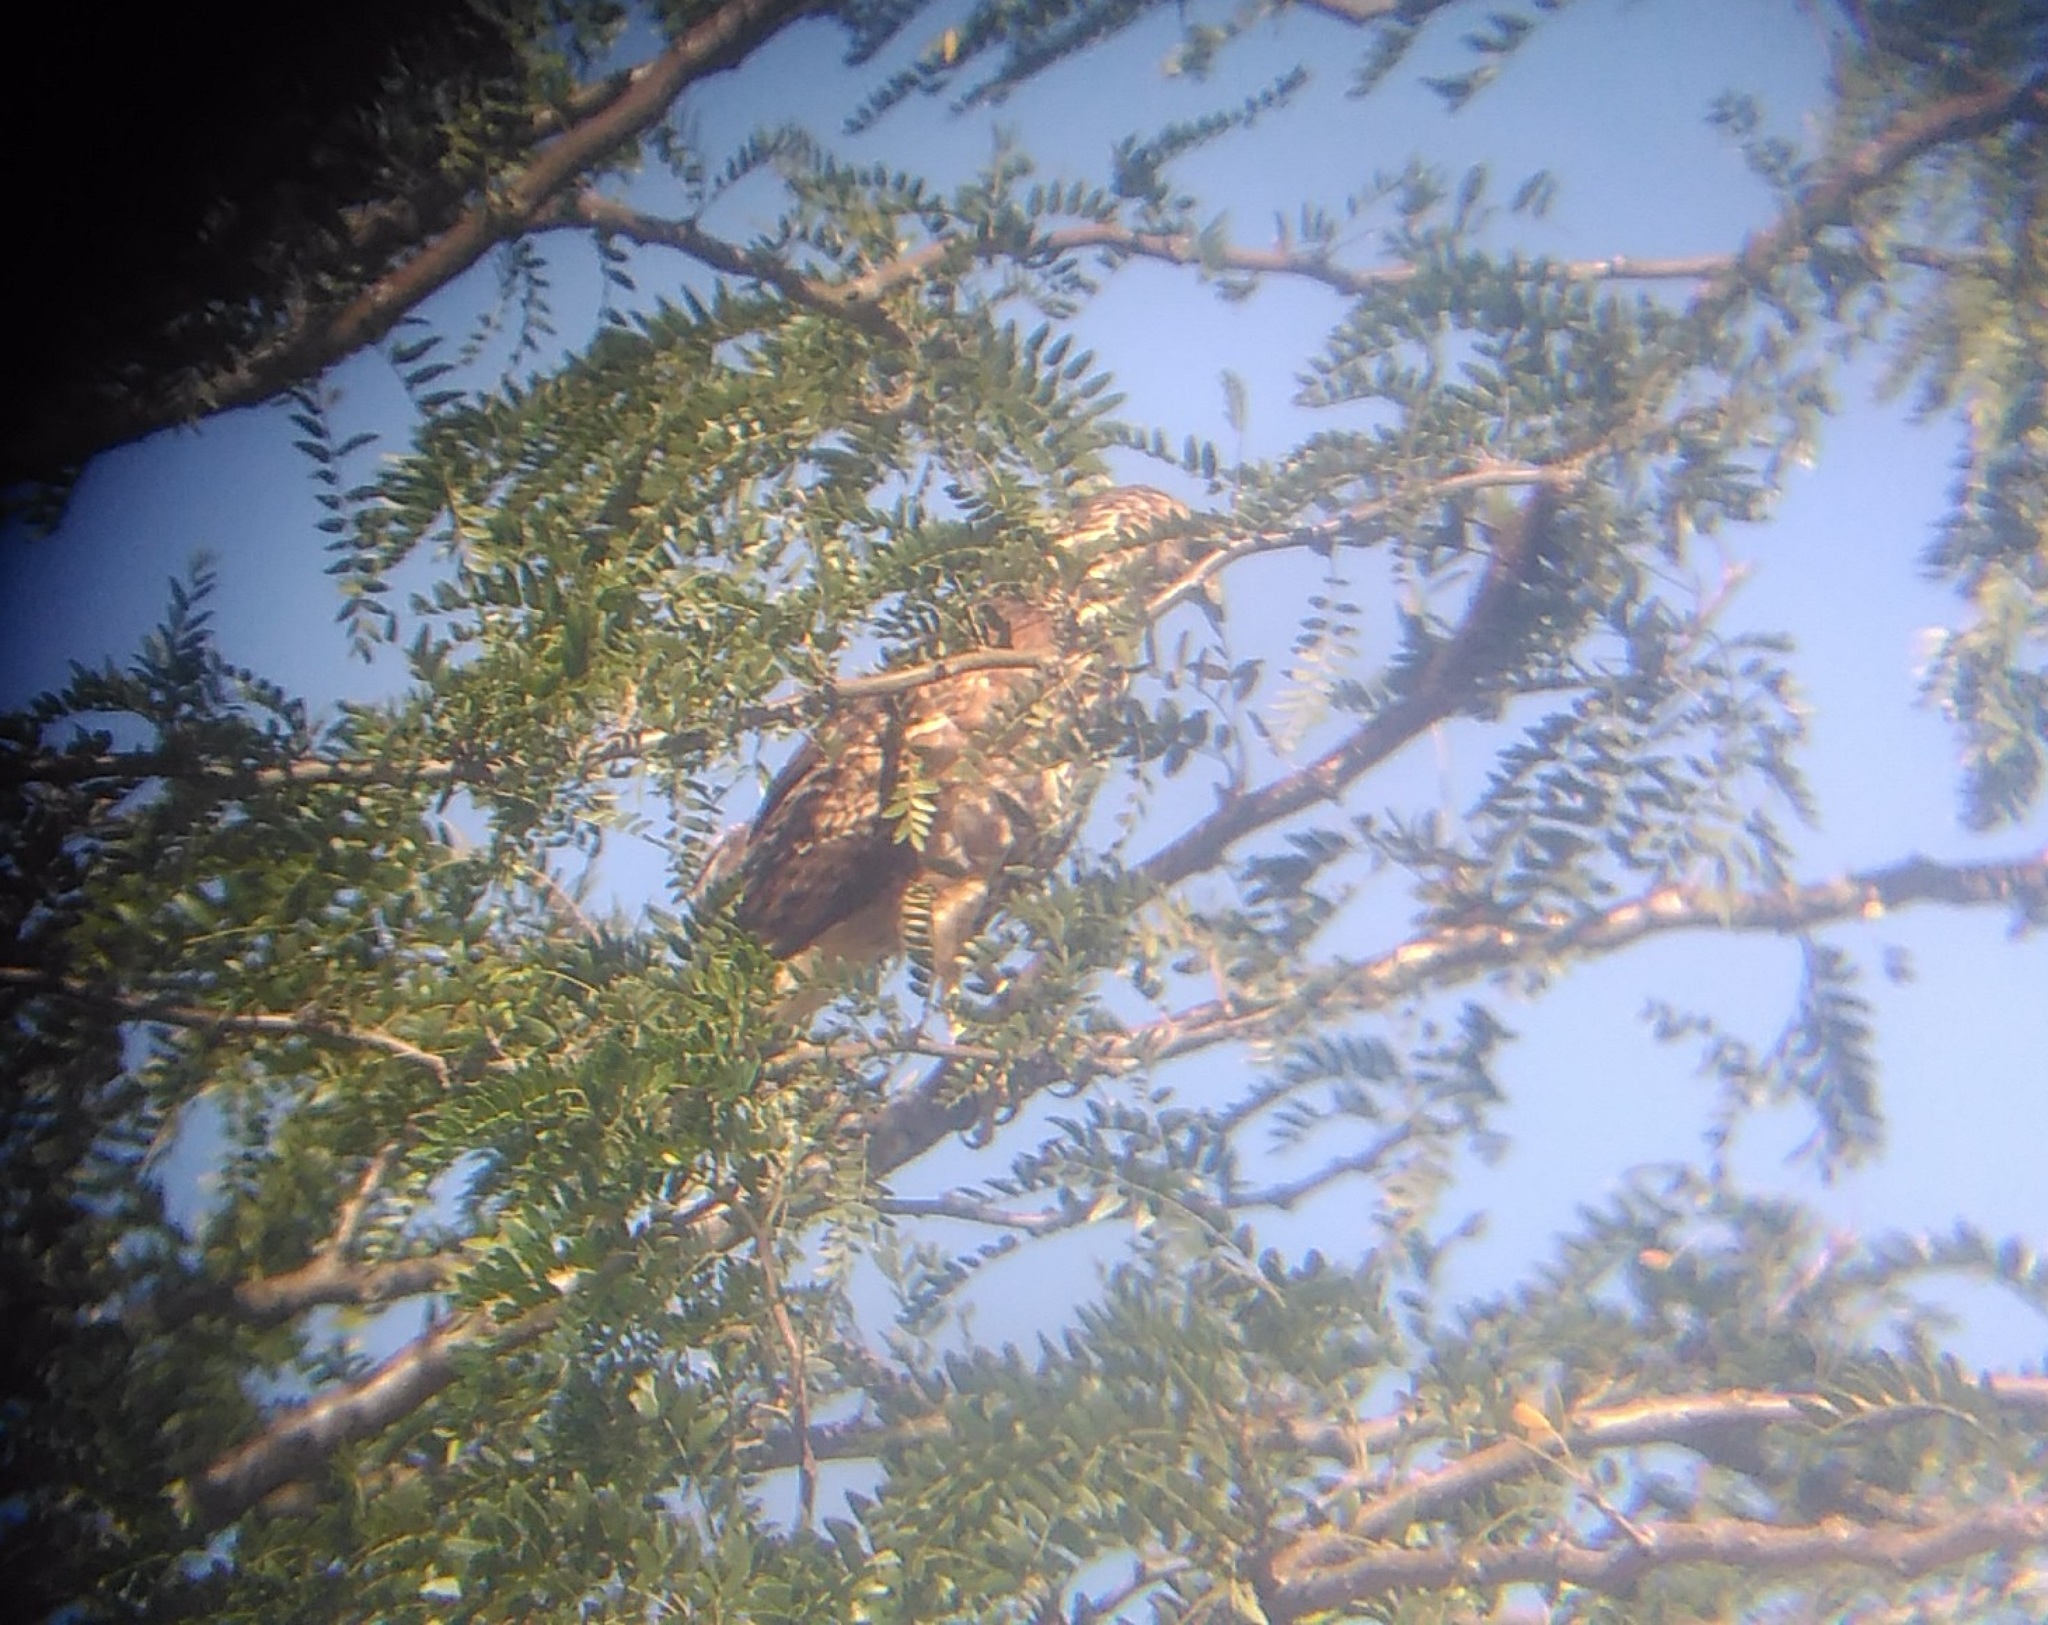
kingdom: Animalia
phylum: Chordata
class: Aves
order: Accipitriformes
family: Accipitridae
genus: Parabuteo
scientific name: Parabuteo unicinctus
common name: Harris's hawk
